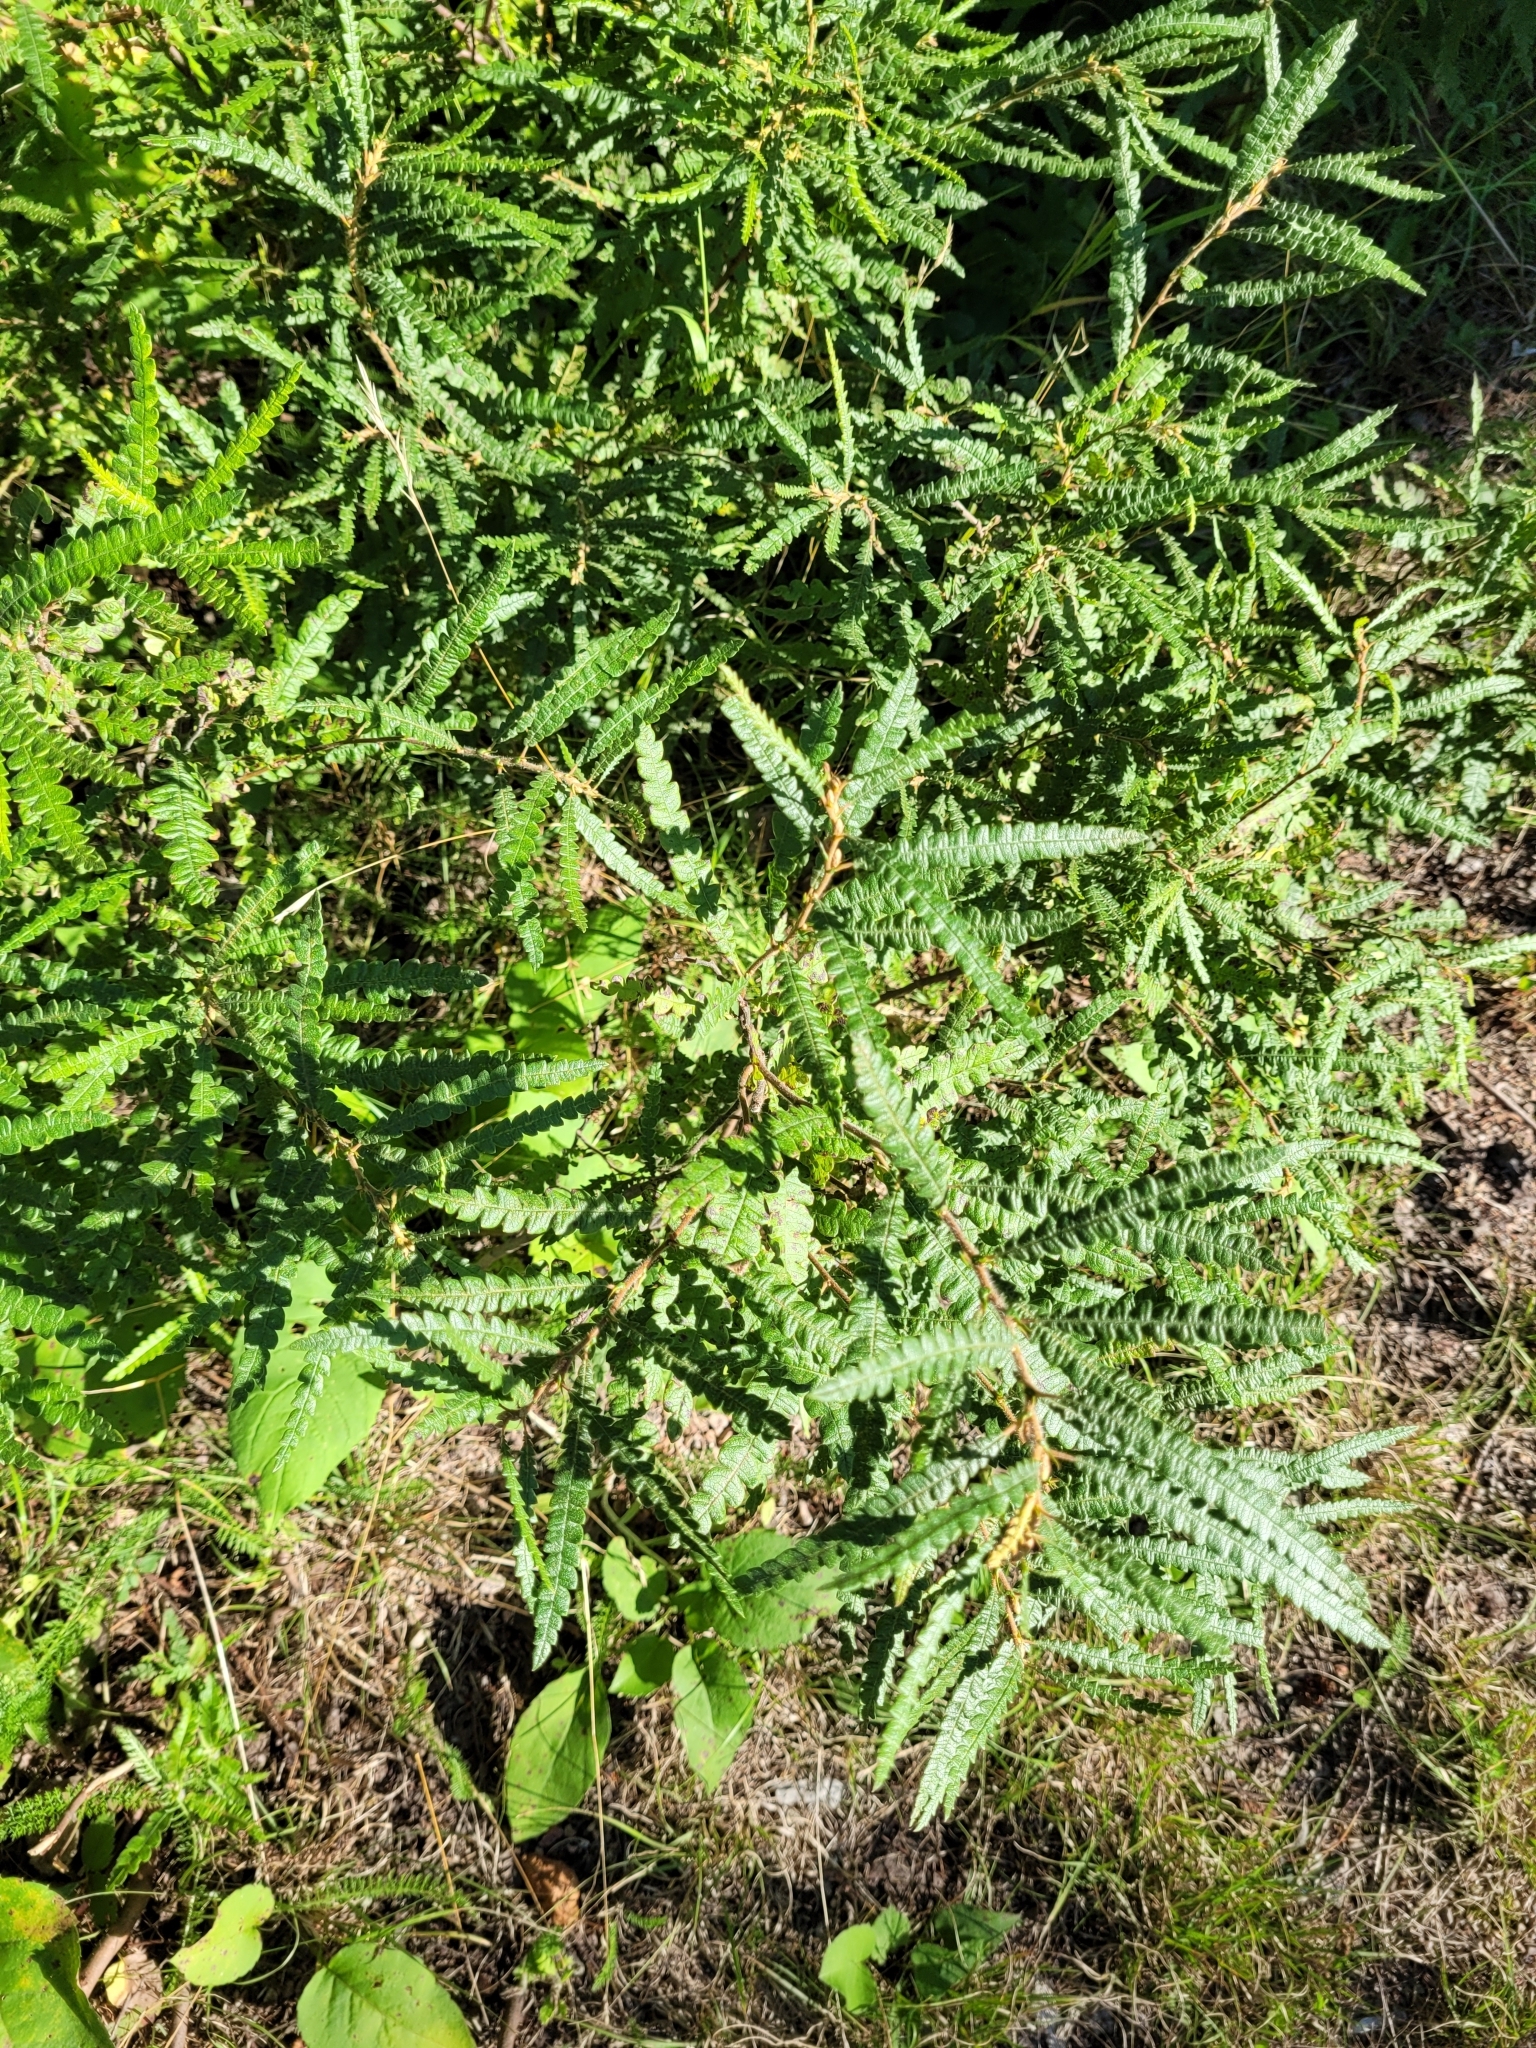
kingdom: Plantae
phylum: Tracheophyta
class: Magnoliopsida
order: Fagales
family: Myricaceae
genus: Comptonia
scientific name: Comptonia peregrina
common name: Sweet-fern
